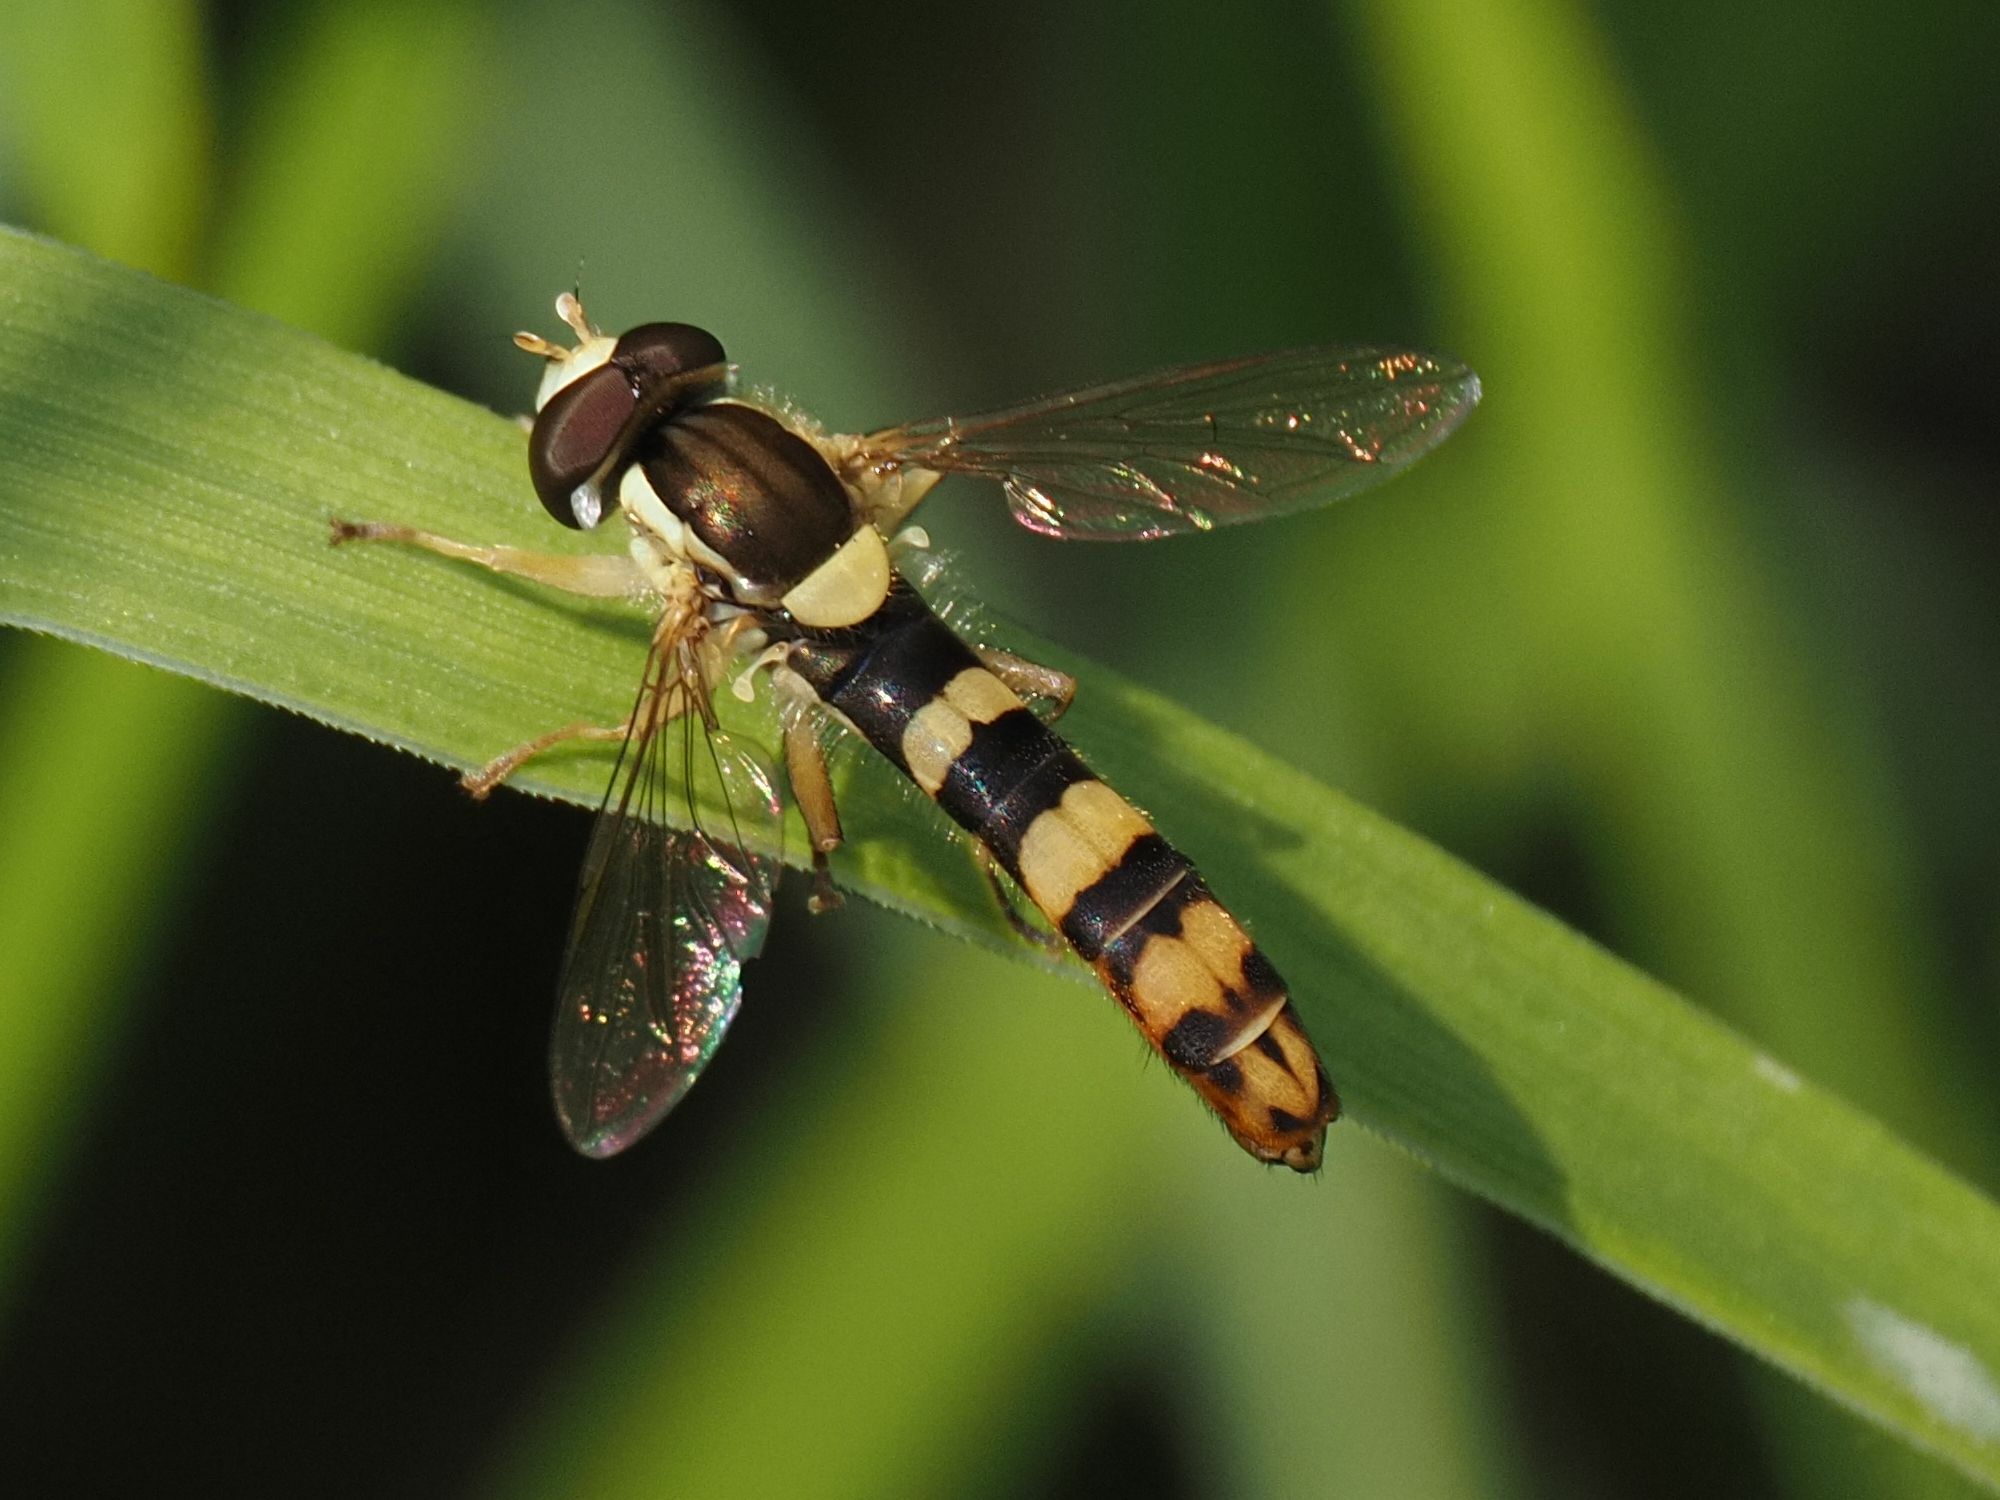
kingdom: Animalia
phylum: Arthropoda
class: Insecta
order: Diptera
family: Syrphidae
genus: Sphaerophoria
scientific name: Sphaerophoria scripta
